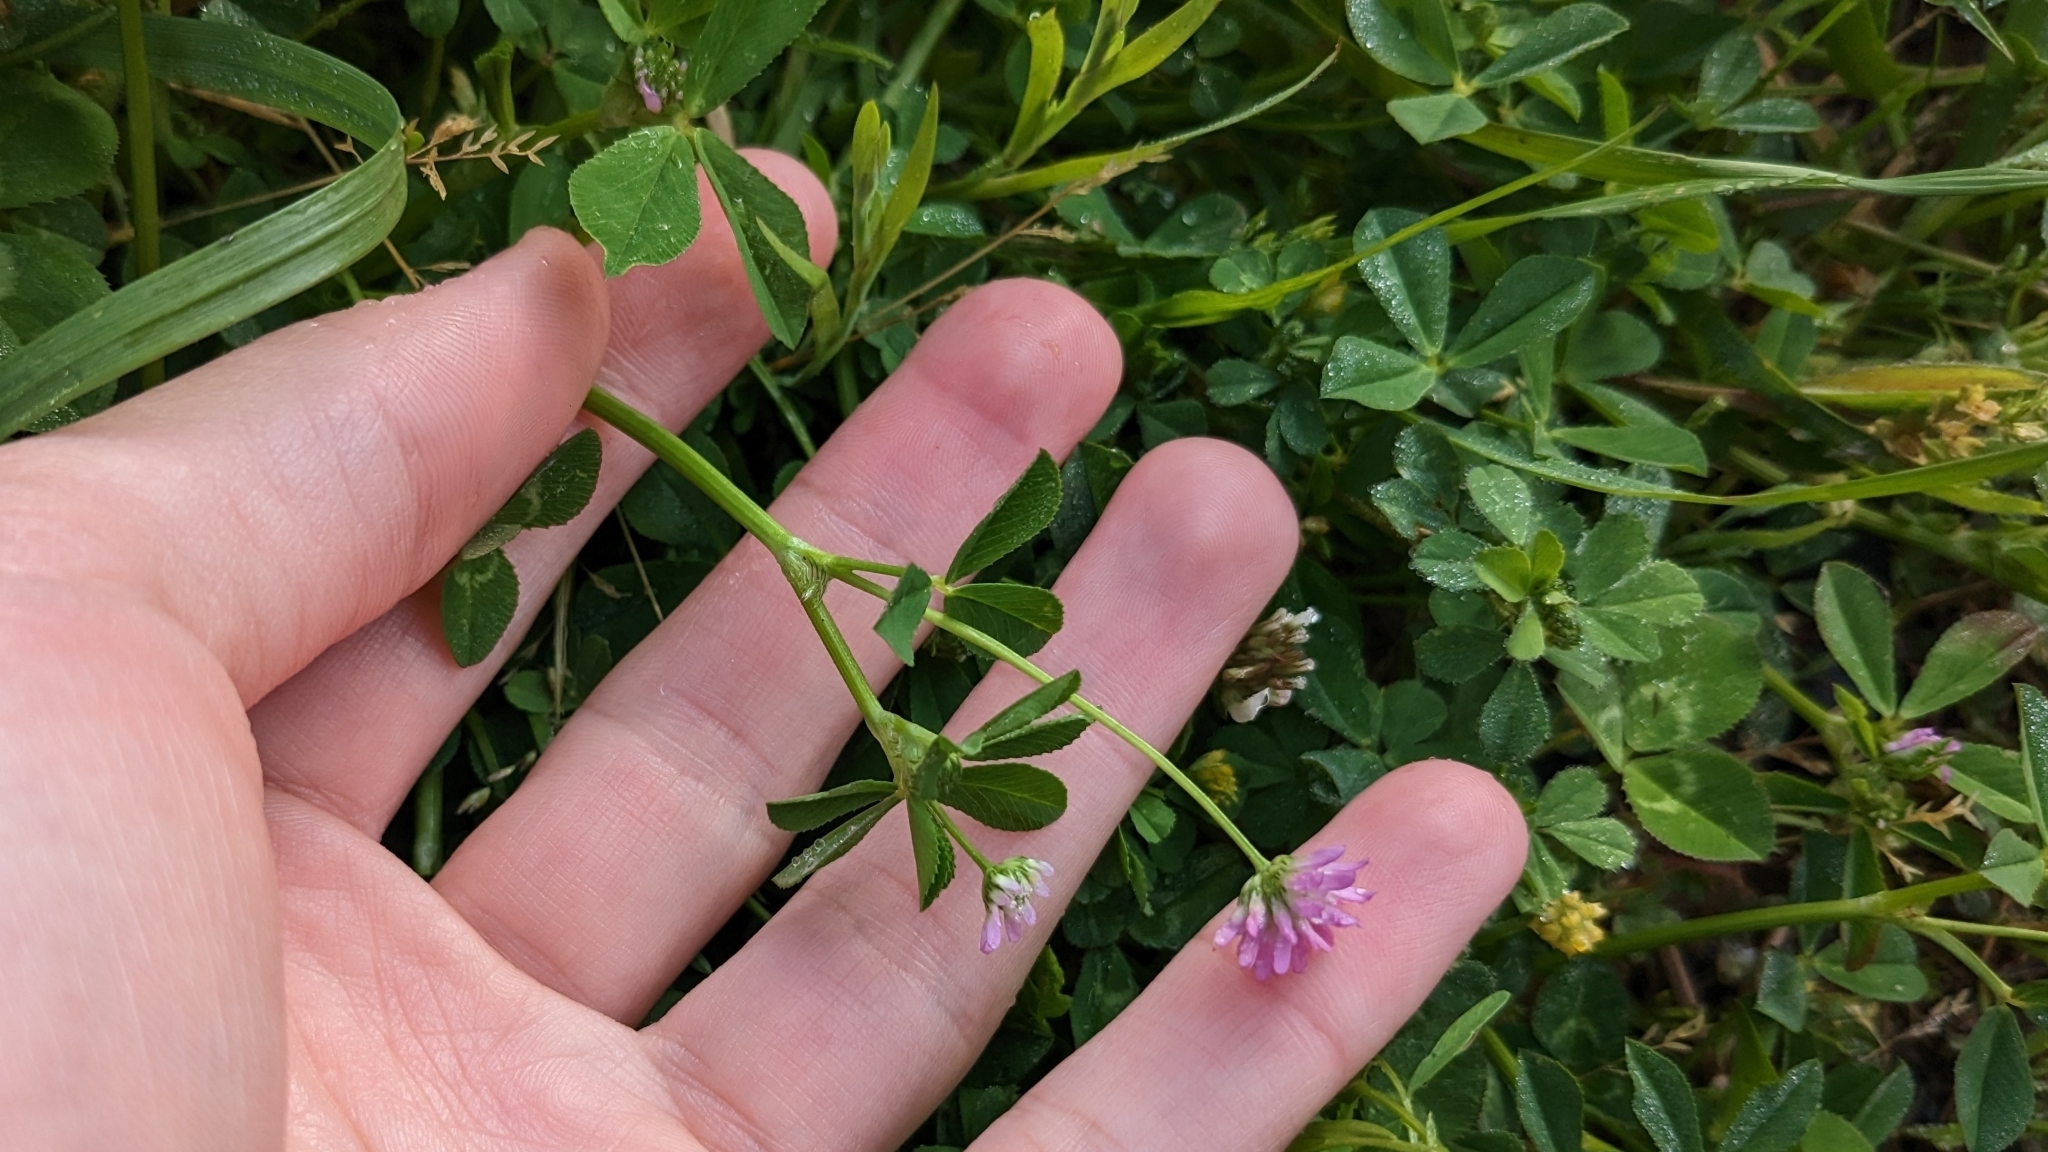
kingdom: Plantae
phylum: Tracheophyta
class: Magnoliopsida
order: Fabales
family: Fabaceae
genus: Trifolium
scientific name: Trifolium resupinatum
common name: Reversed clover
